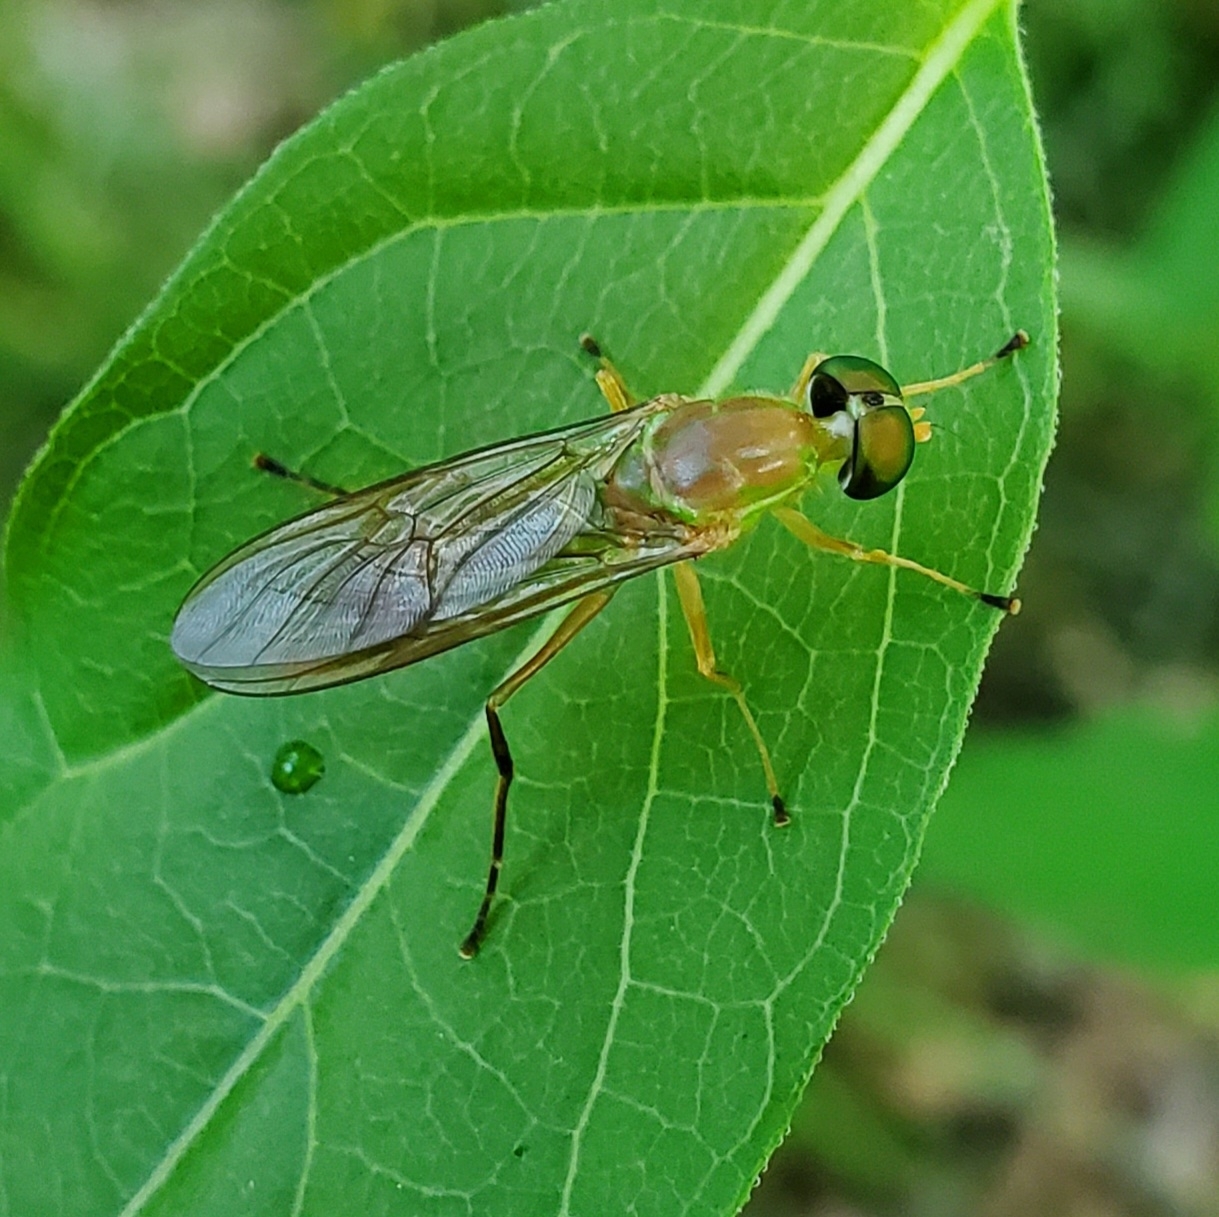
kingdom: Animalia
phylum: Arthropoda
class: Insecta
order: Diptera
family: Stratiomyidae
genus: Ptecticus
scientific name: Ptecticus trivittatus
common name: Compost fly
